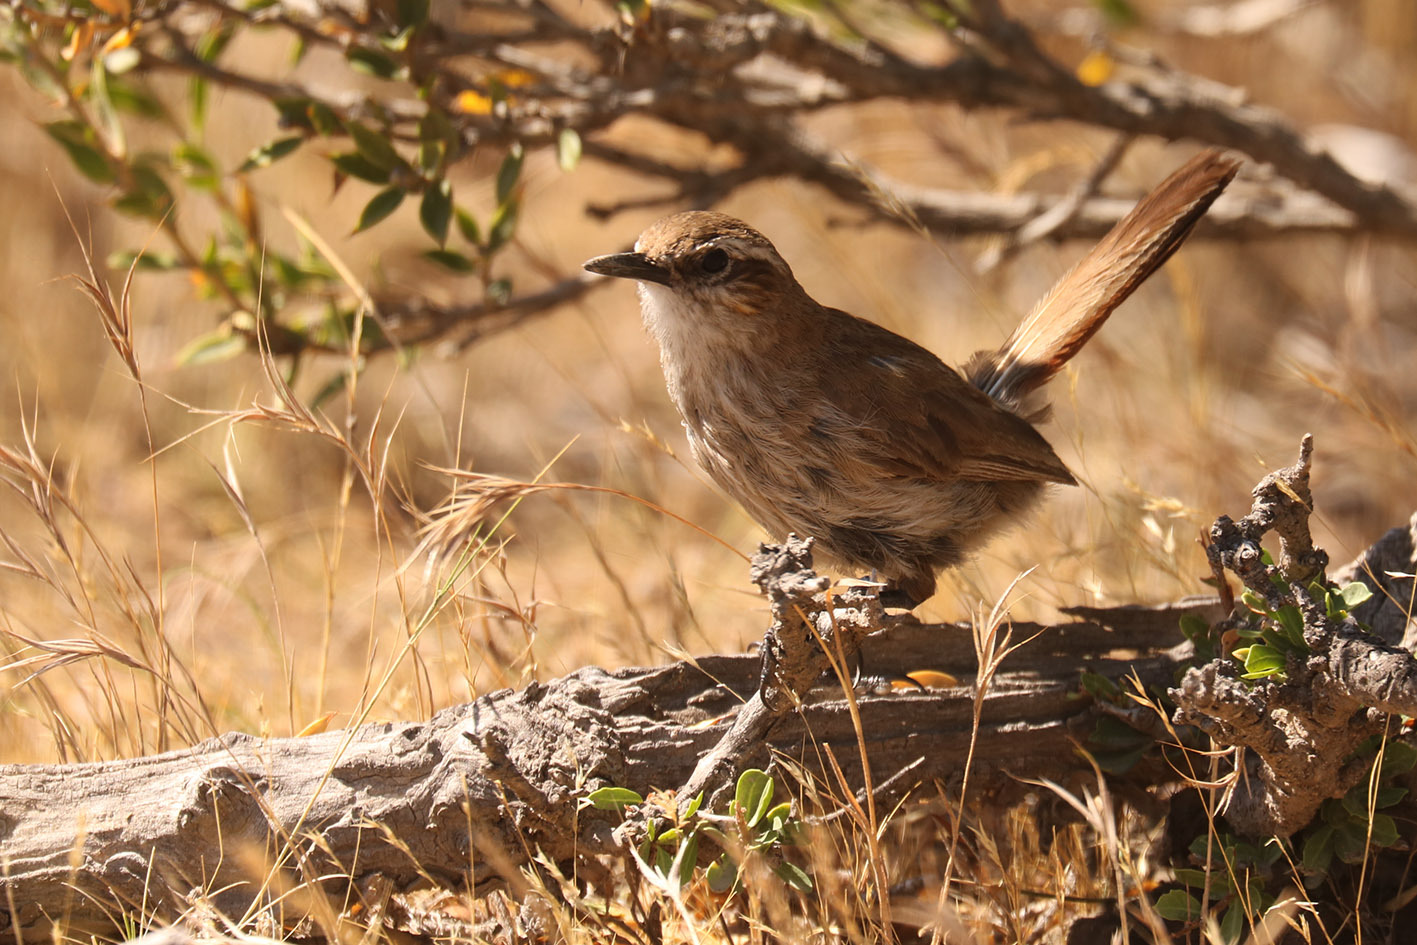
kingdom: Animalia
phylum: Chordata
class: Aves
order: Passeriformes
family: Furnariidae
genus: Eremobius
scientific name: Eremobius phoenicurus
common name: Band-tailed eremobius
